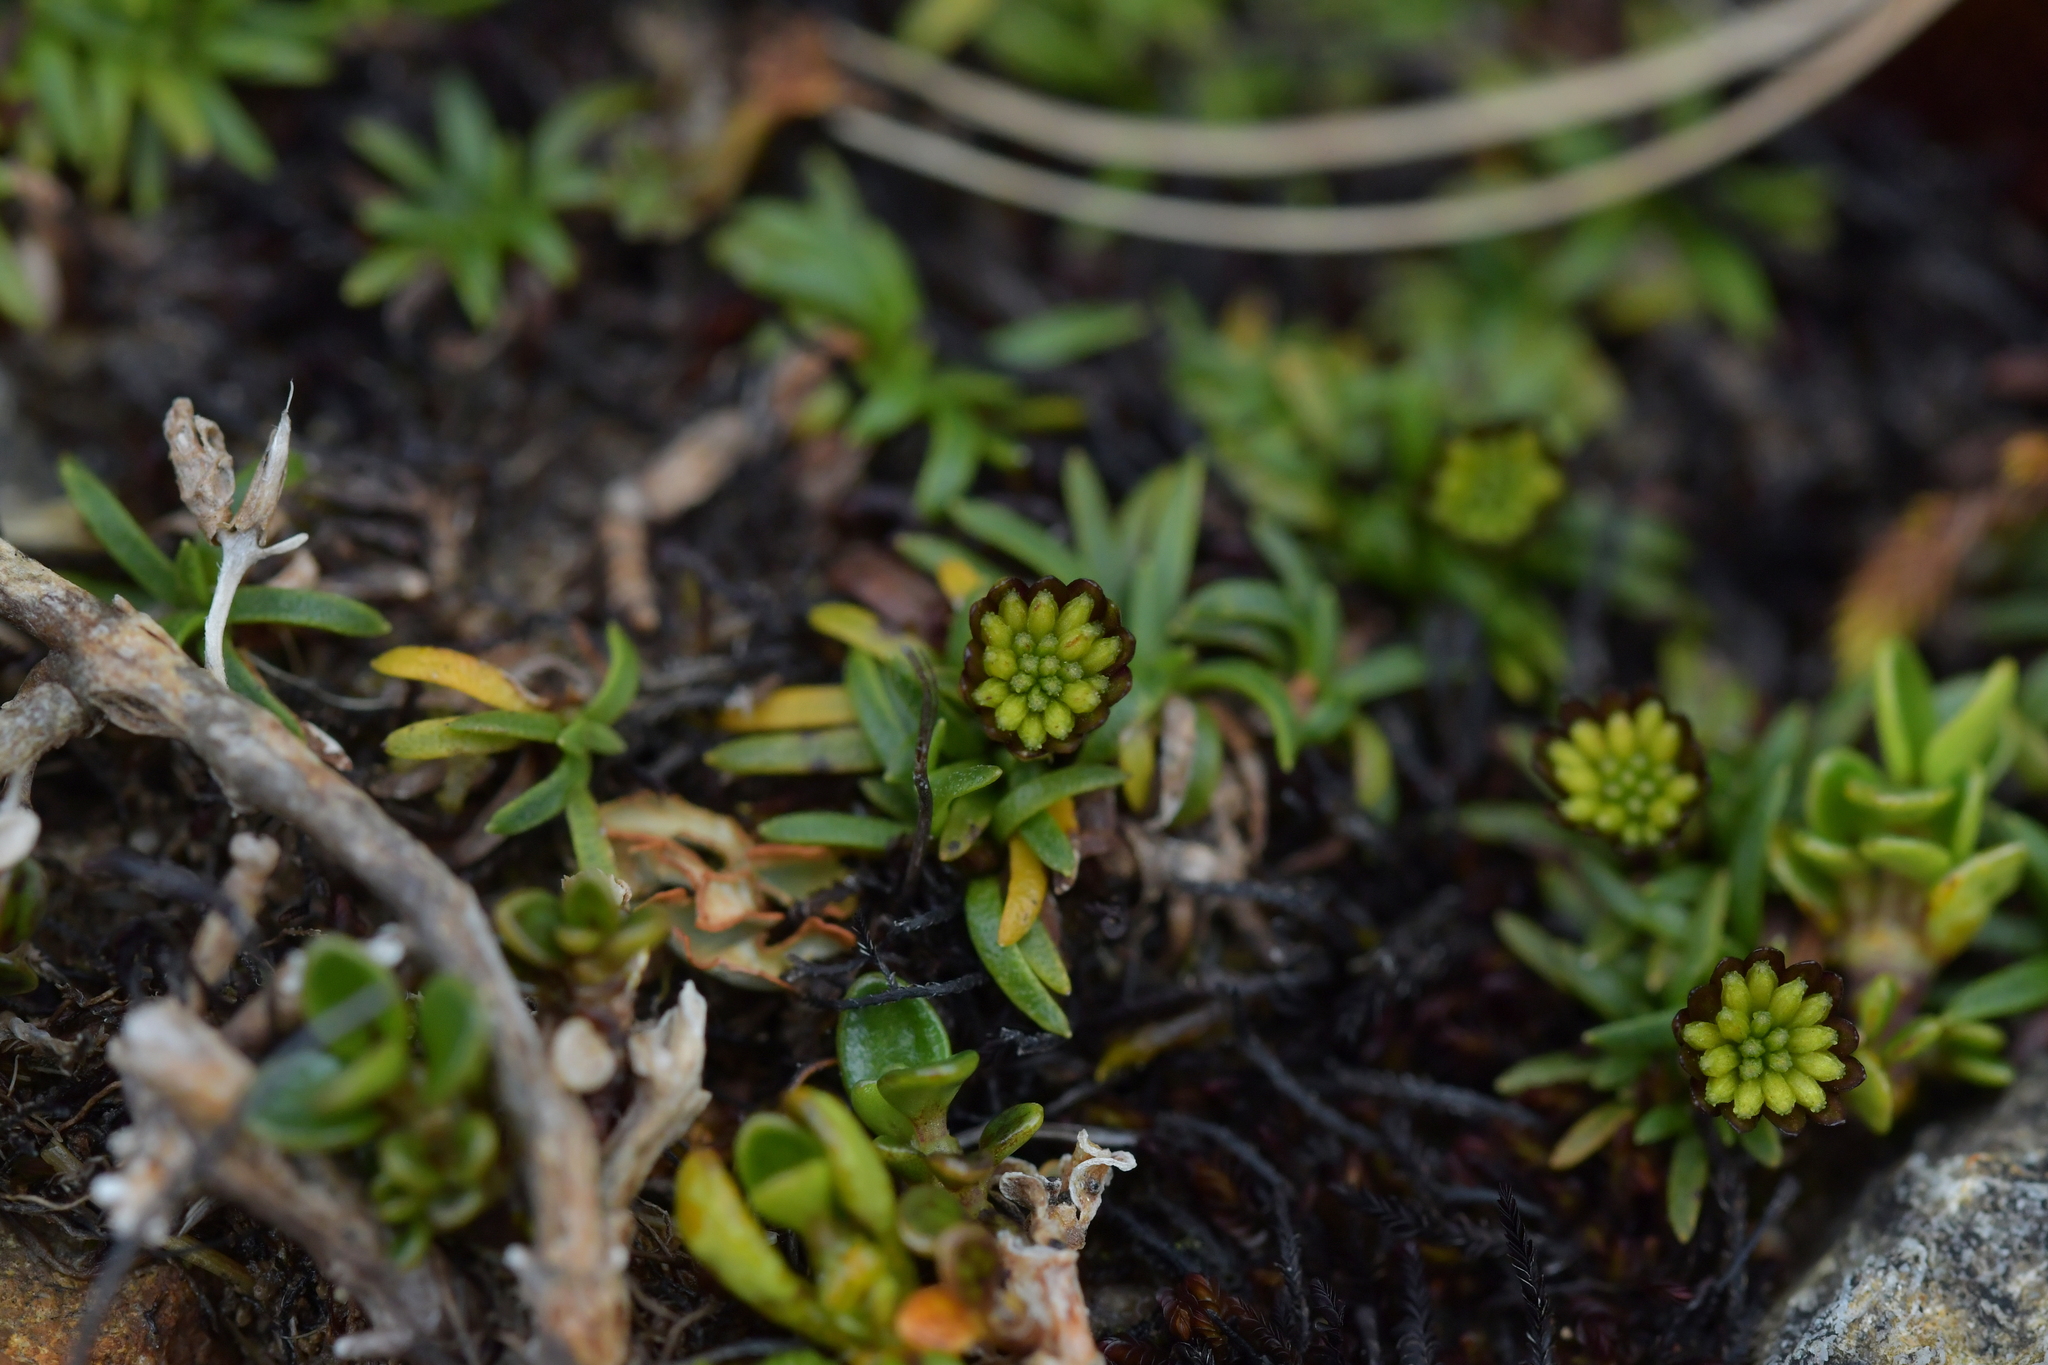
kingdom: Plantae
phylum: Tracheophyta
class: Magnoliopsida
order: Asterales
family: Asteraceae
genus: Abrotanella
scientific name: Abrotanella pusilla
